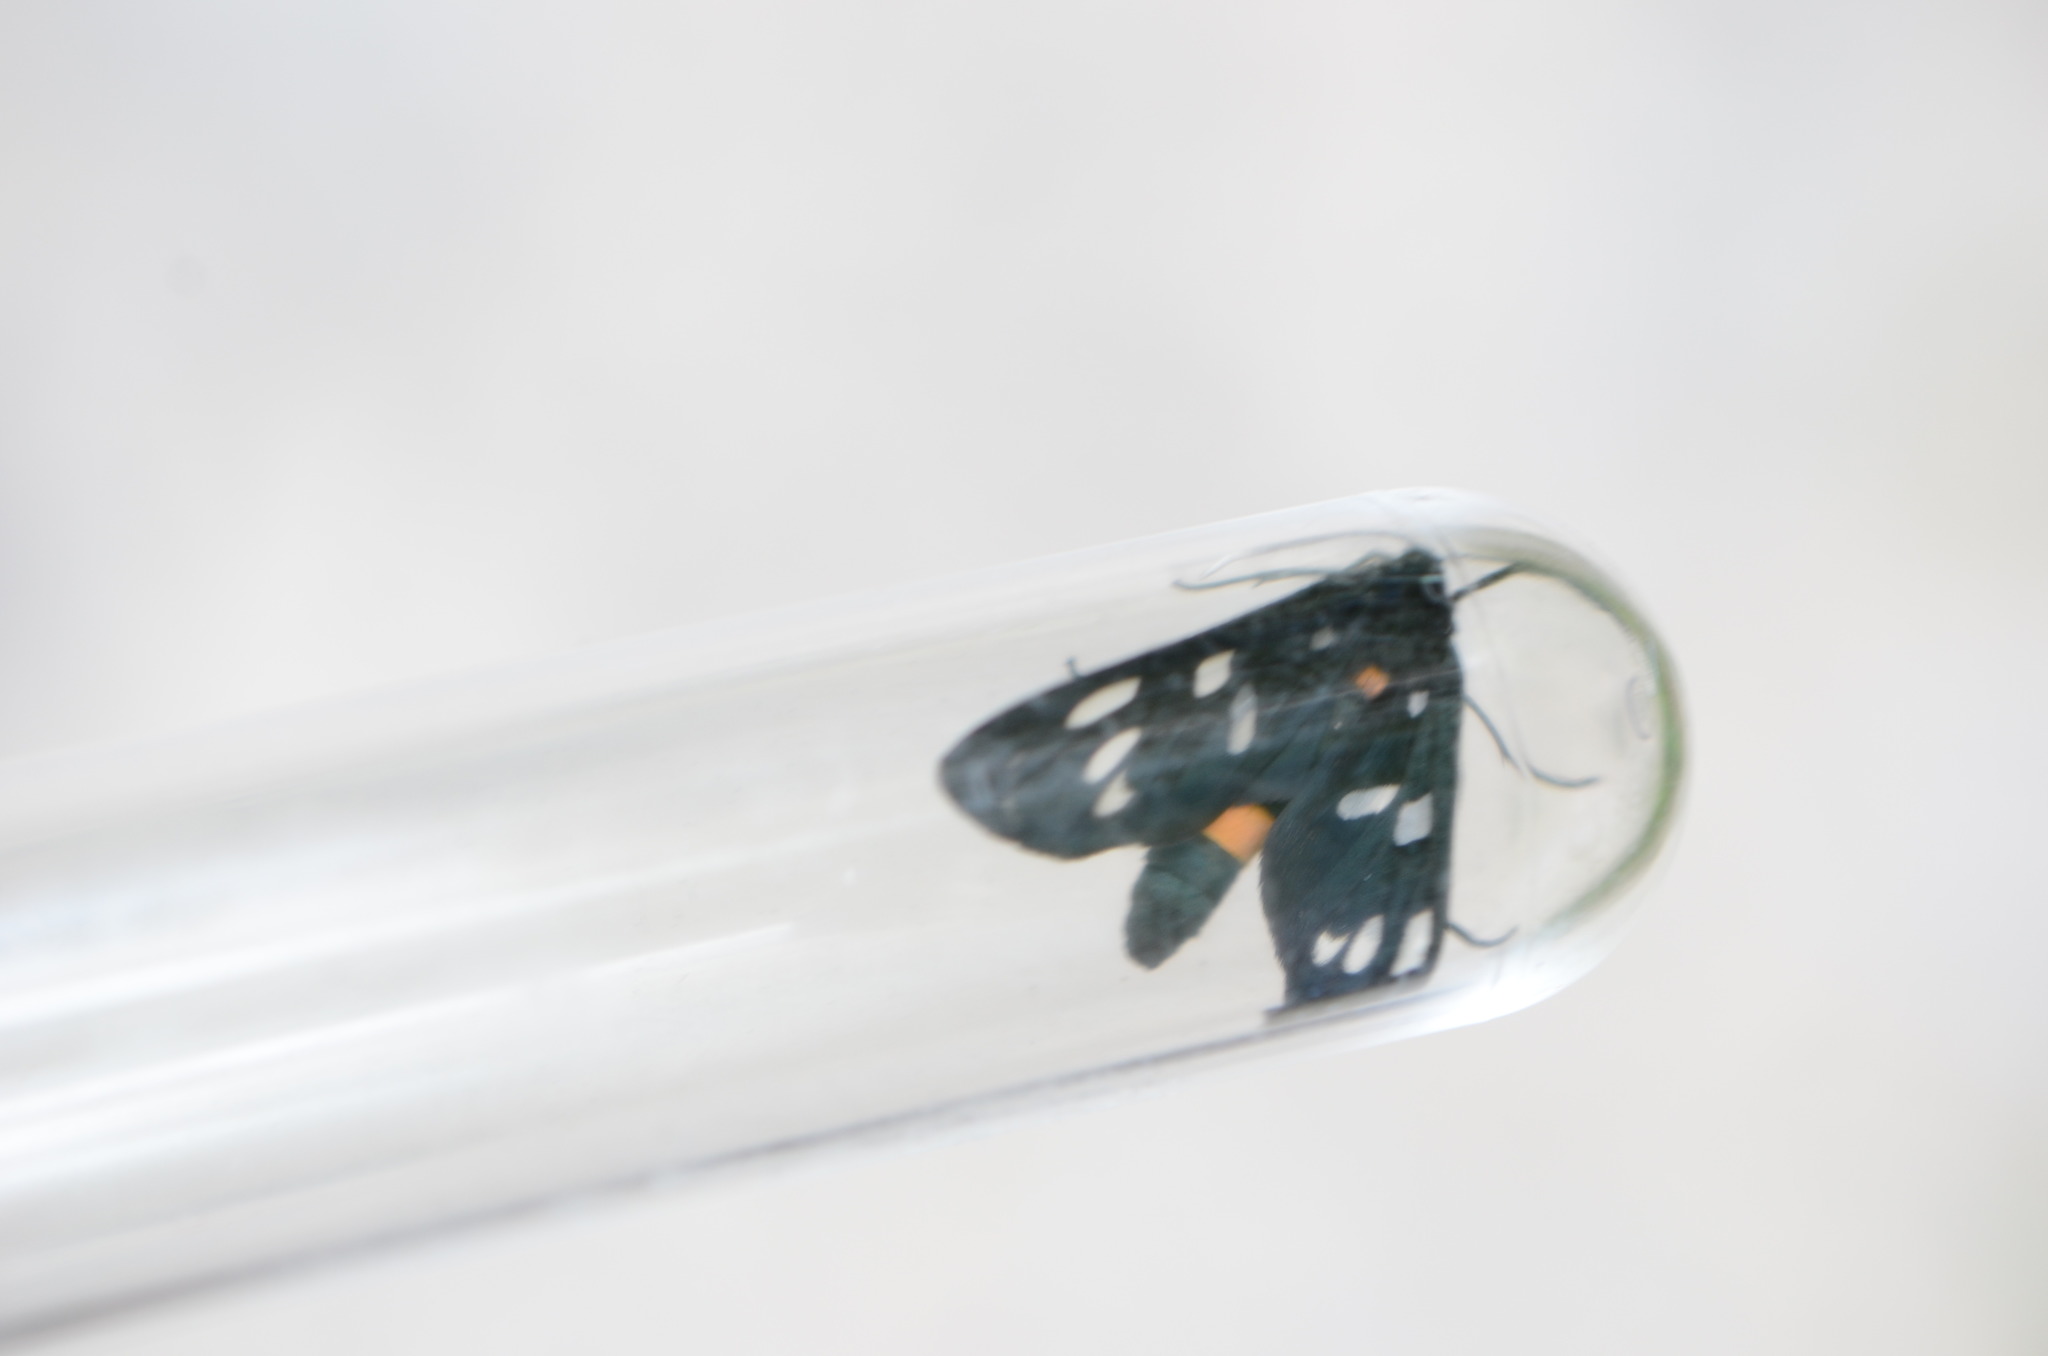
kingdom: Animalia
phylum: Arthropoda
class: Insecta
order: Lepidoptera
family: Erebidae
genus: Amata
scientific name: Amata phegea
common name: Nine-spotted
